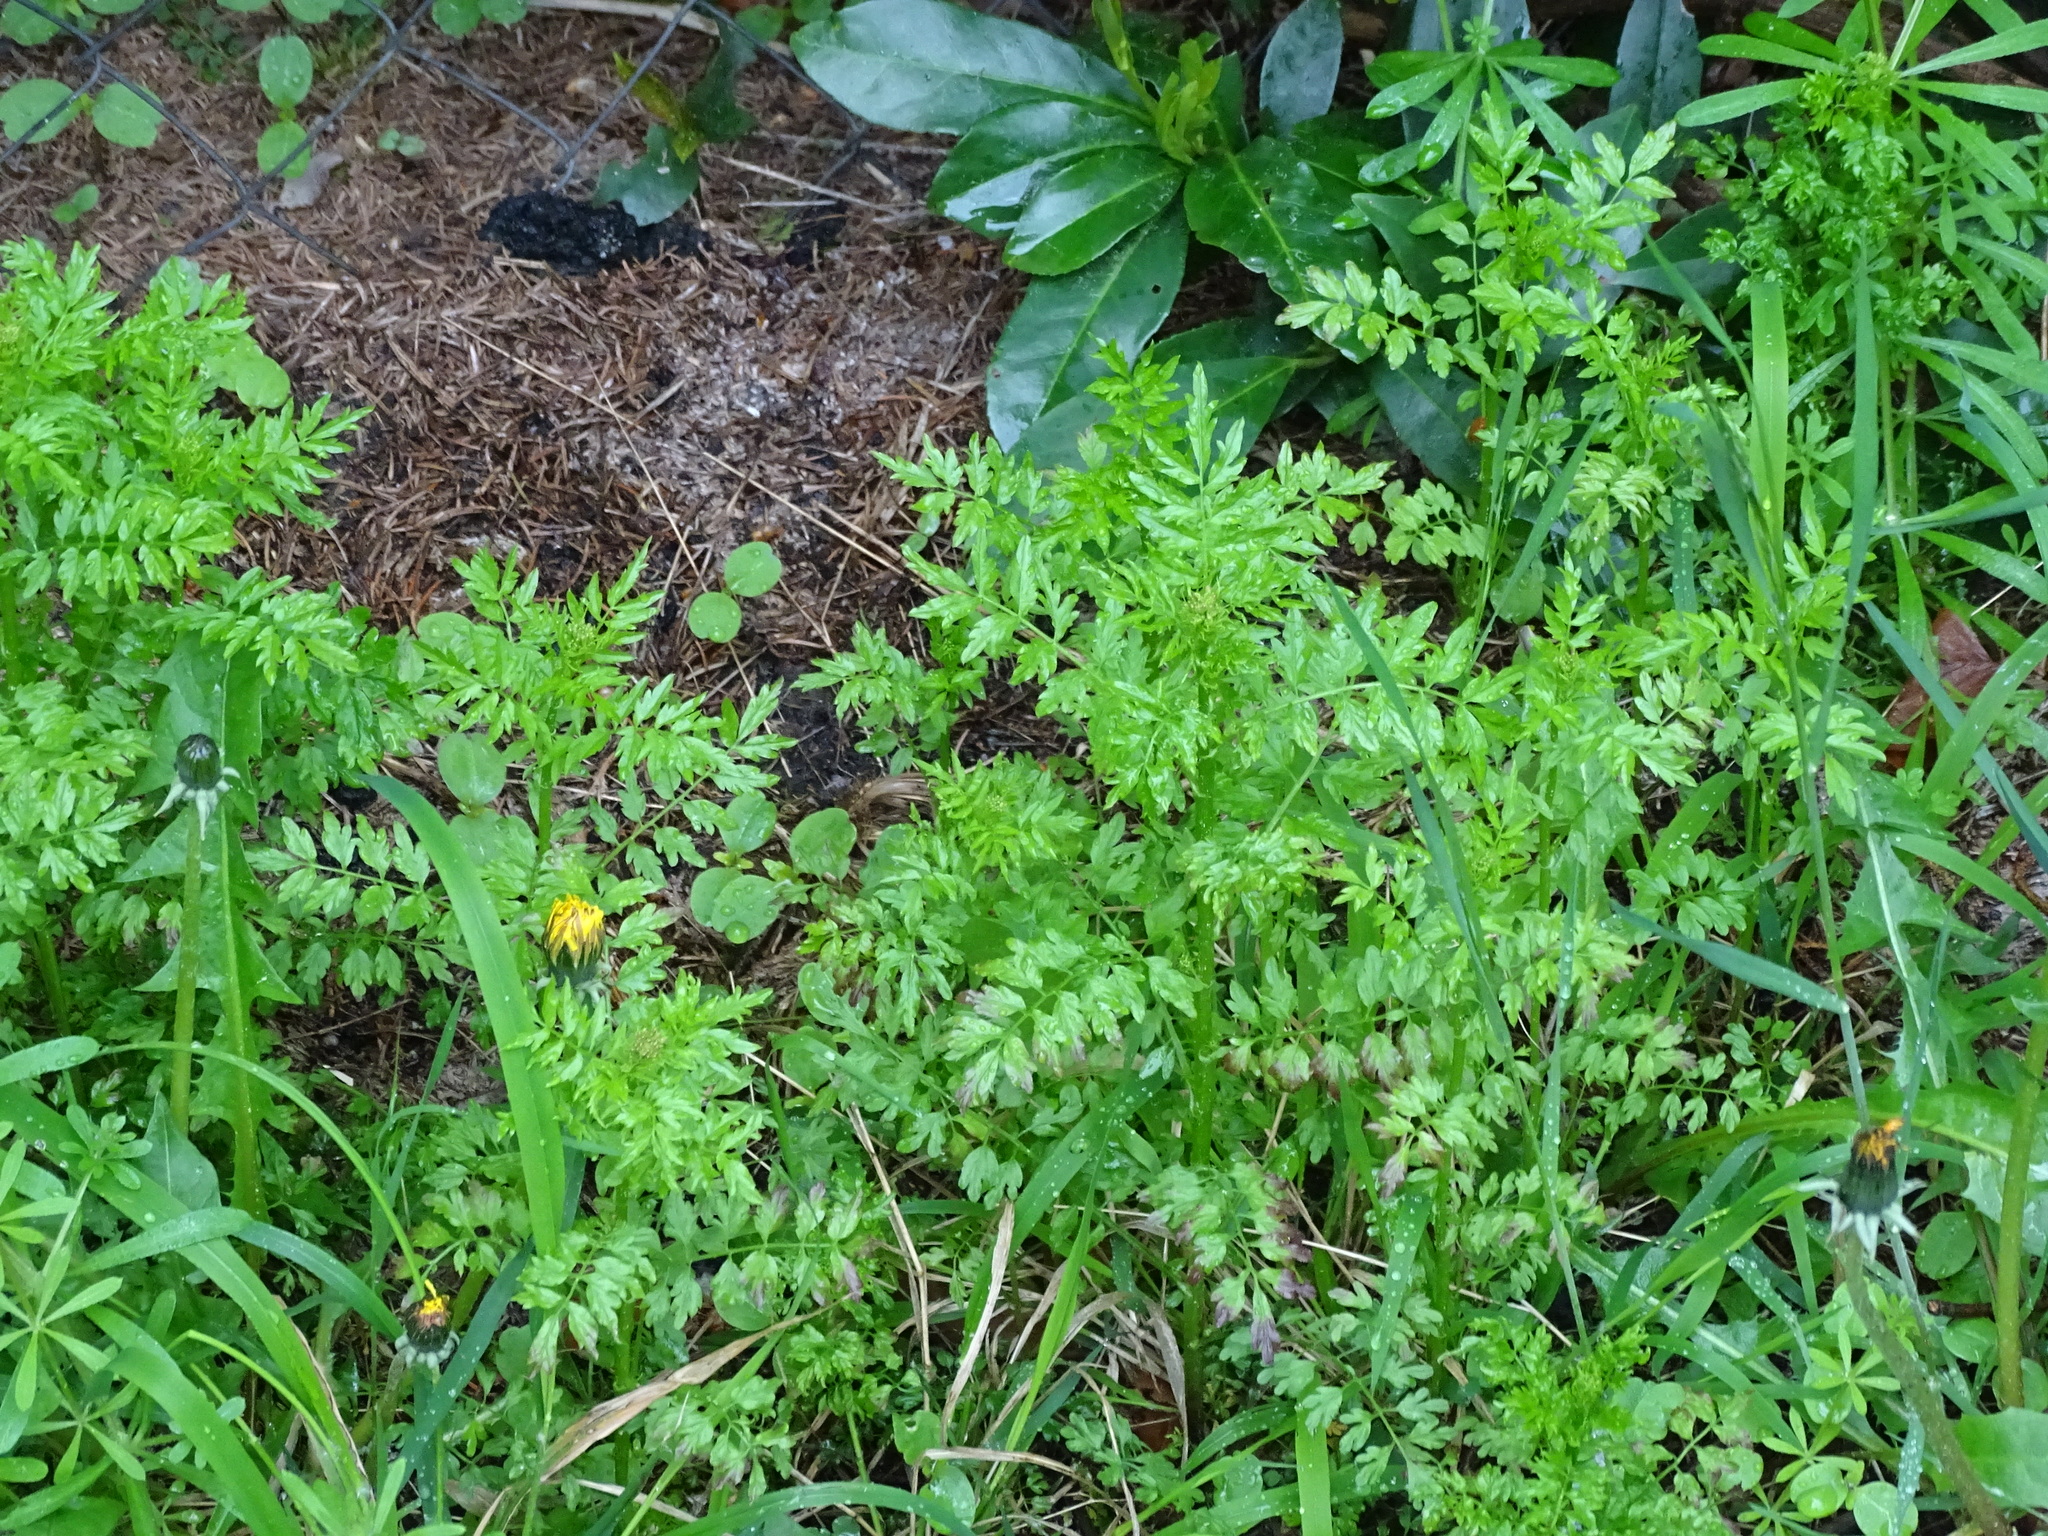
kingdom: Plantae
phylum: Tracheophyta
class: Magnoliopsida
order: Brassicales
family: Brassicaceae
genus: Cardamine
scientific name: Cardamine impatiens
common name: Narrow-leaved bitter-cress
